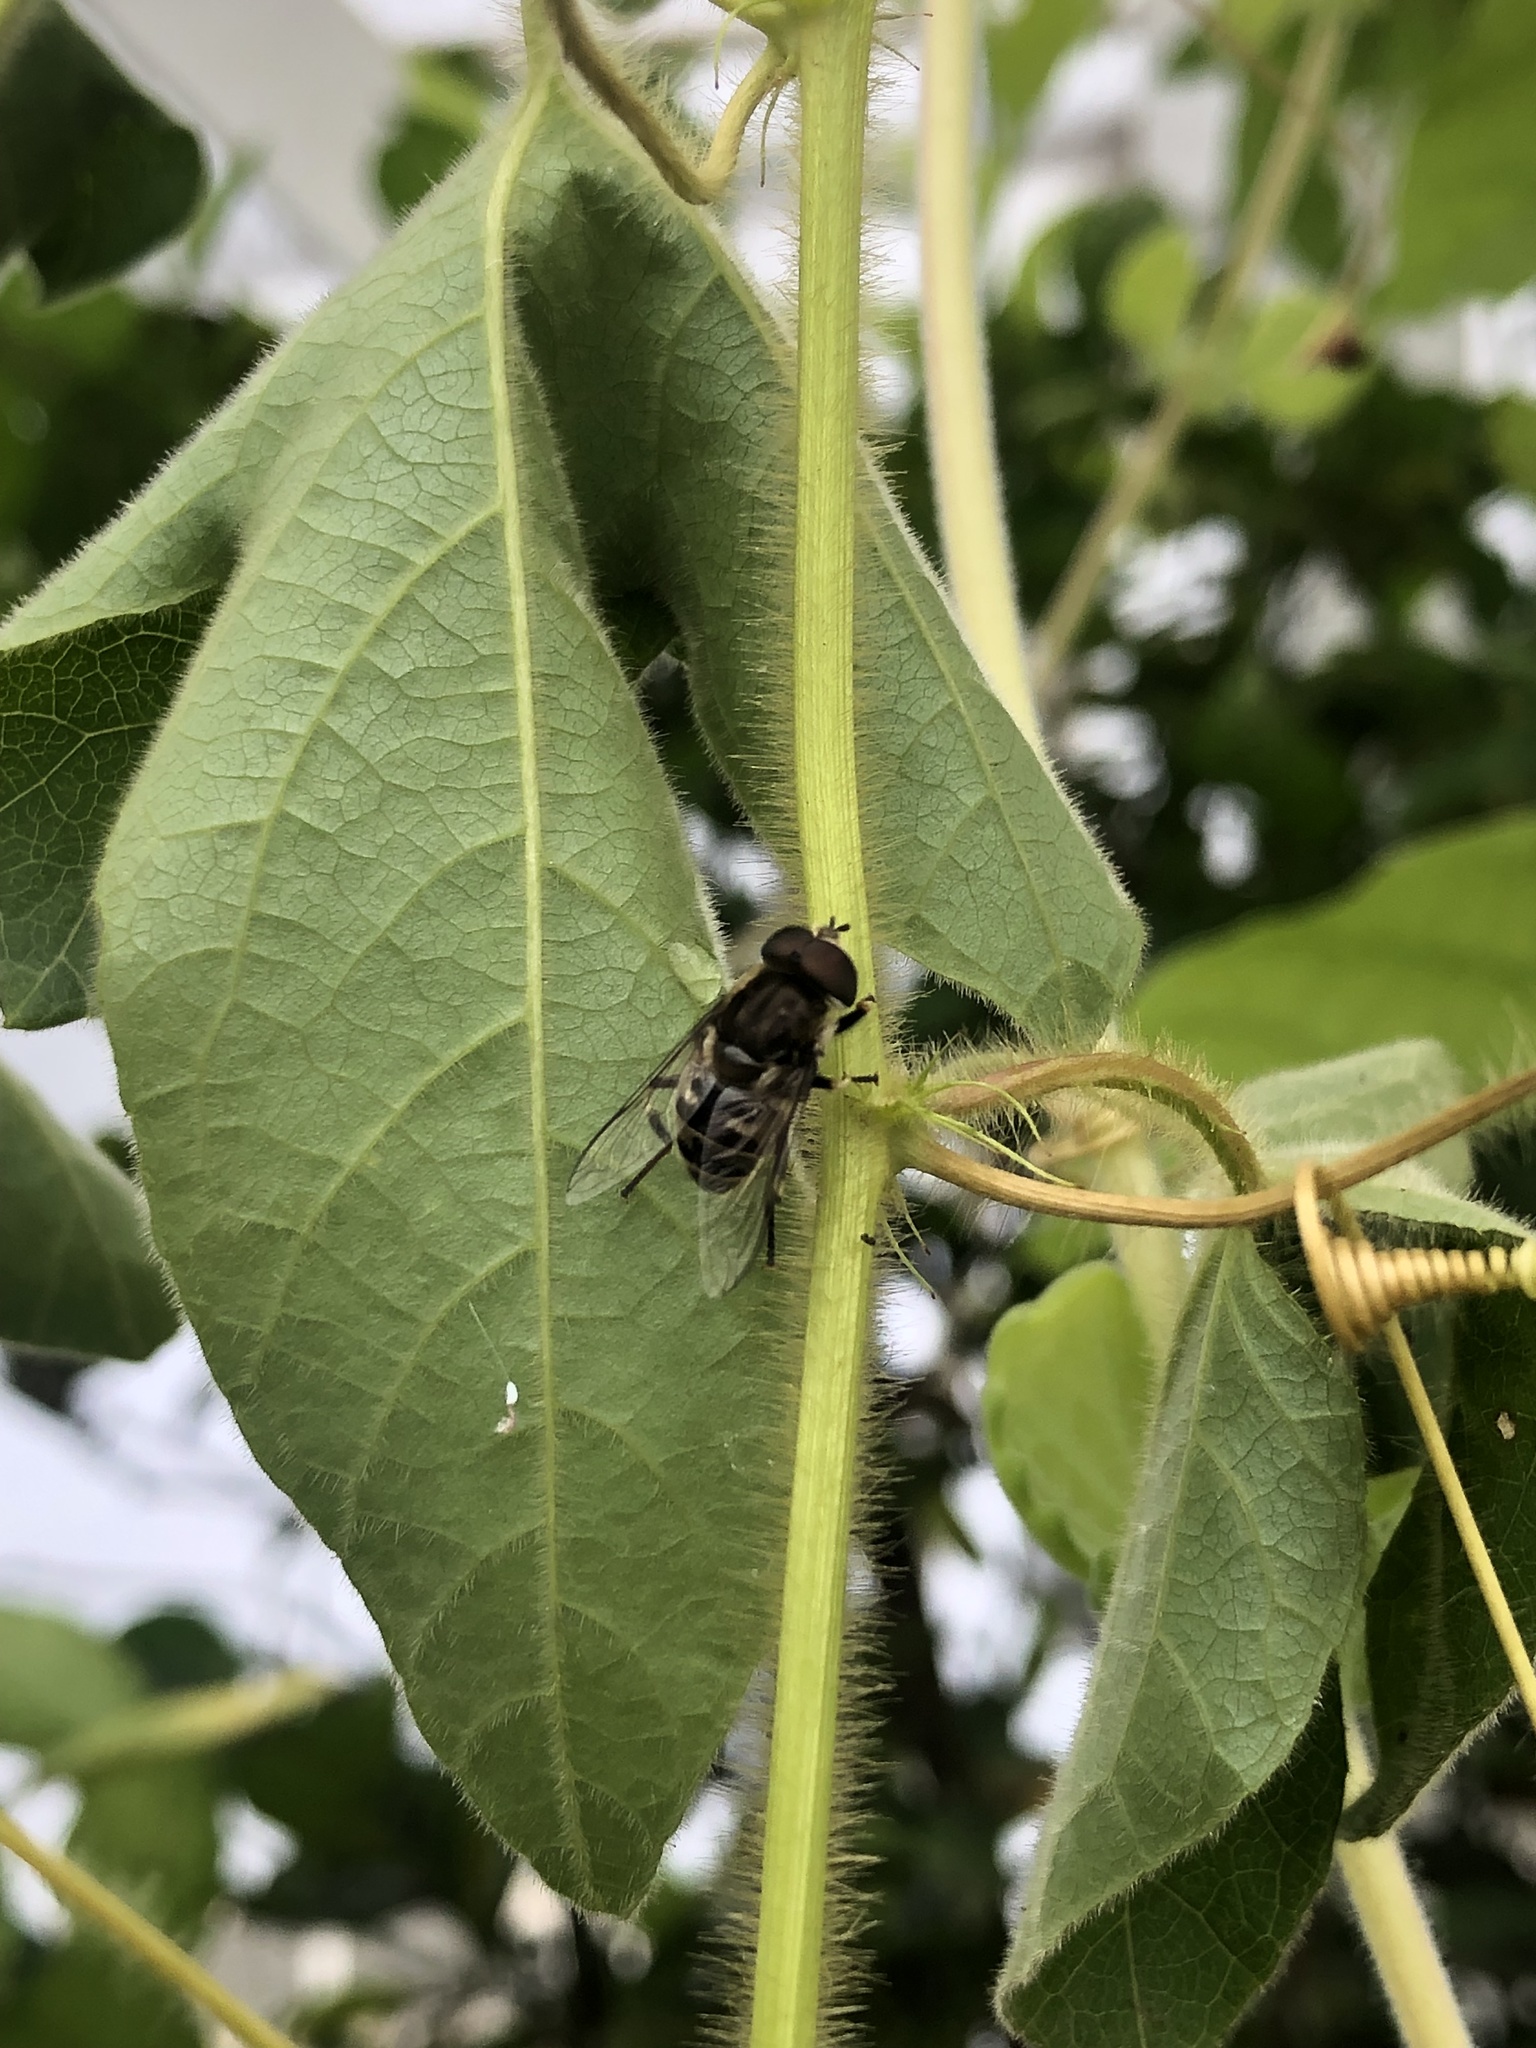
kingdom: Animalia
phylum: Arthropoda
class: Insecta
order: Diptera
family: Syrphidae
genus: Eristalis
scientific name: Eristalis dimidiata
